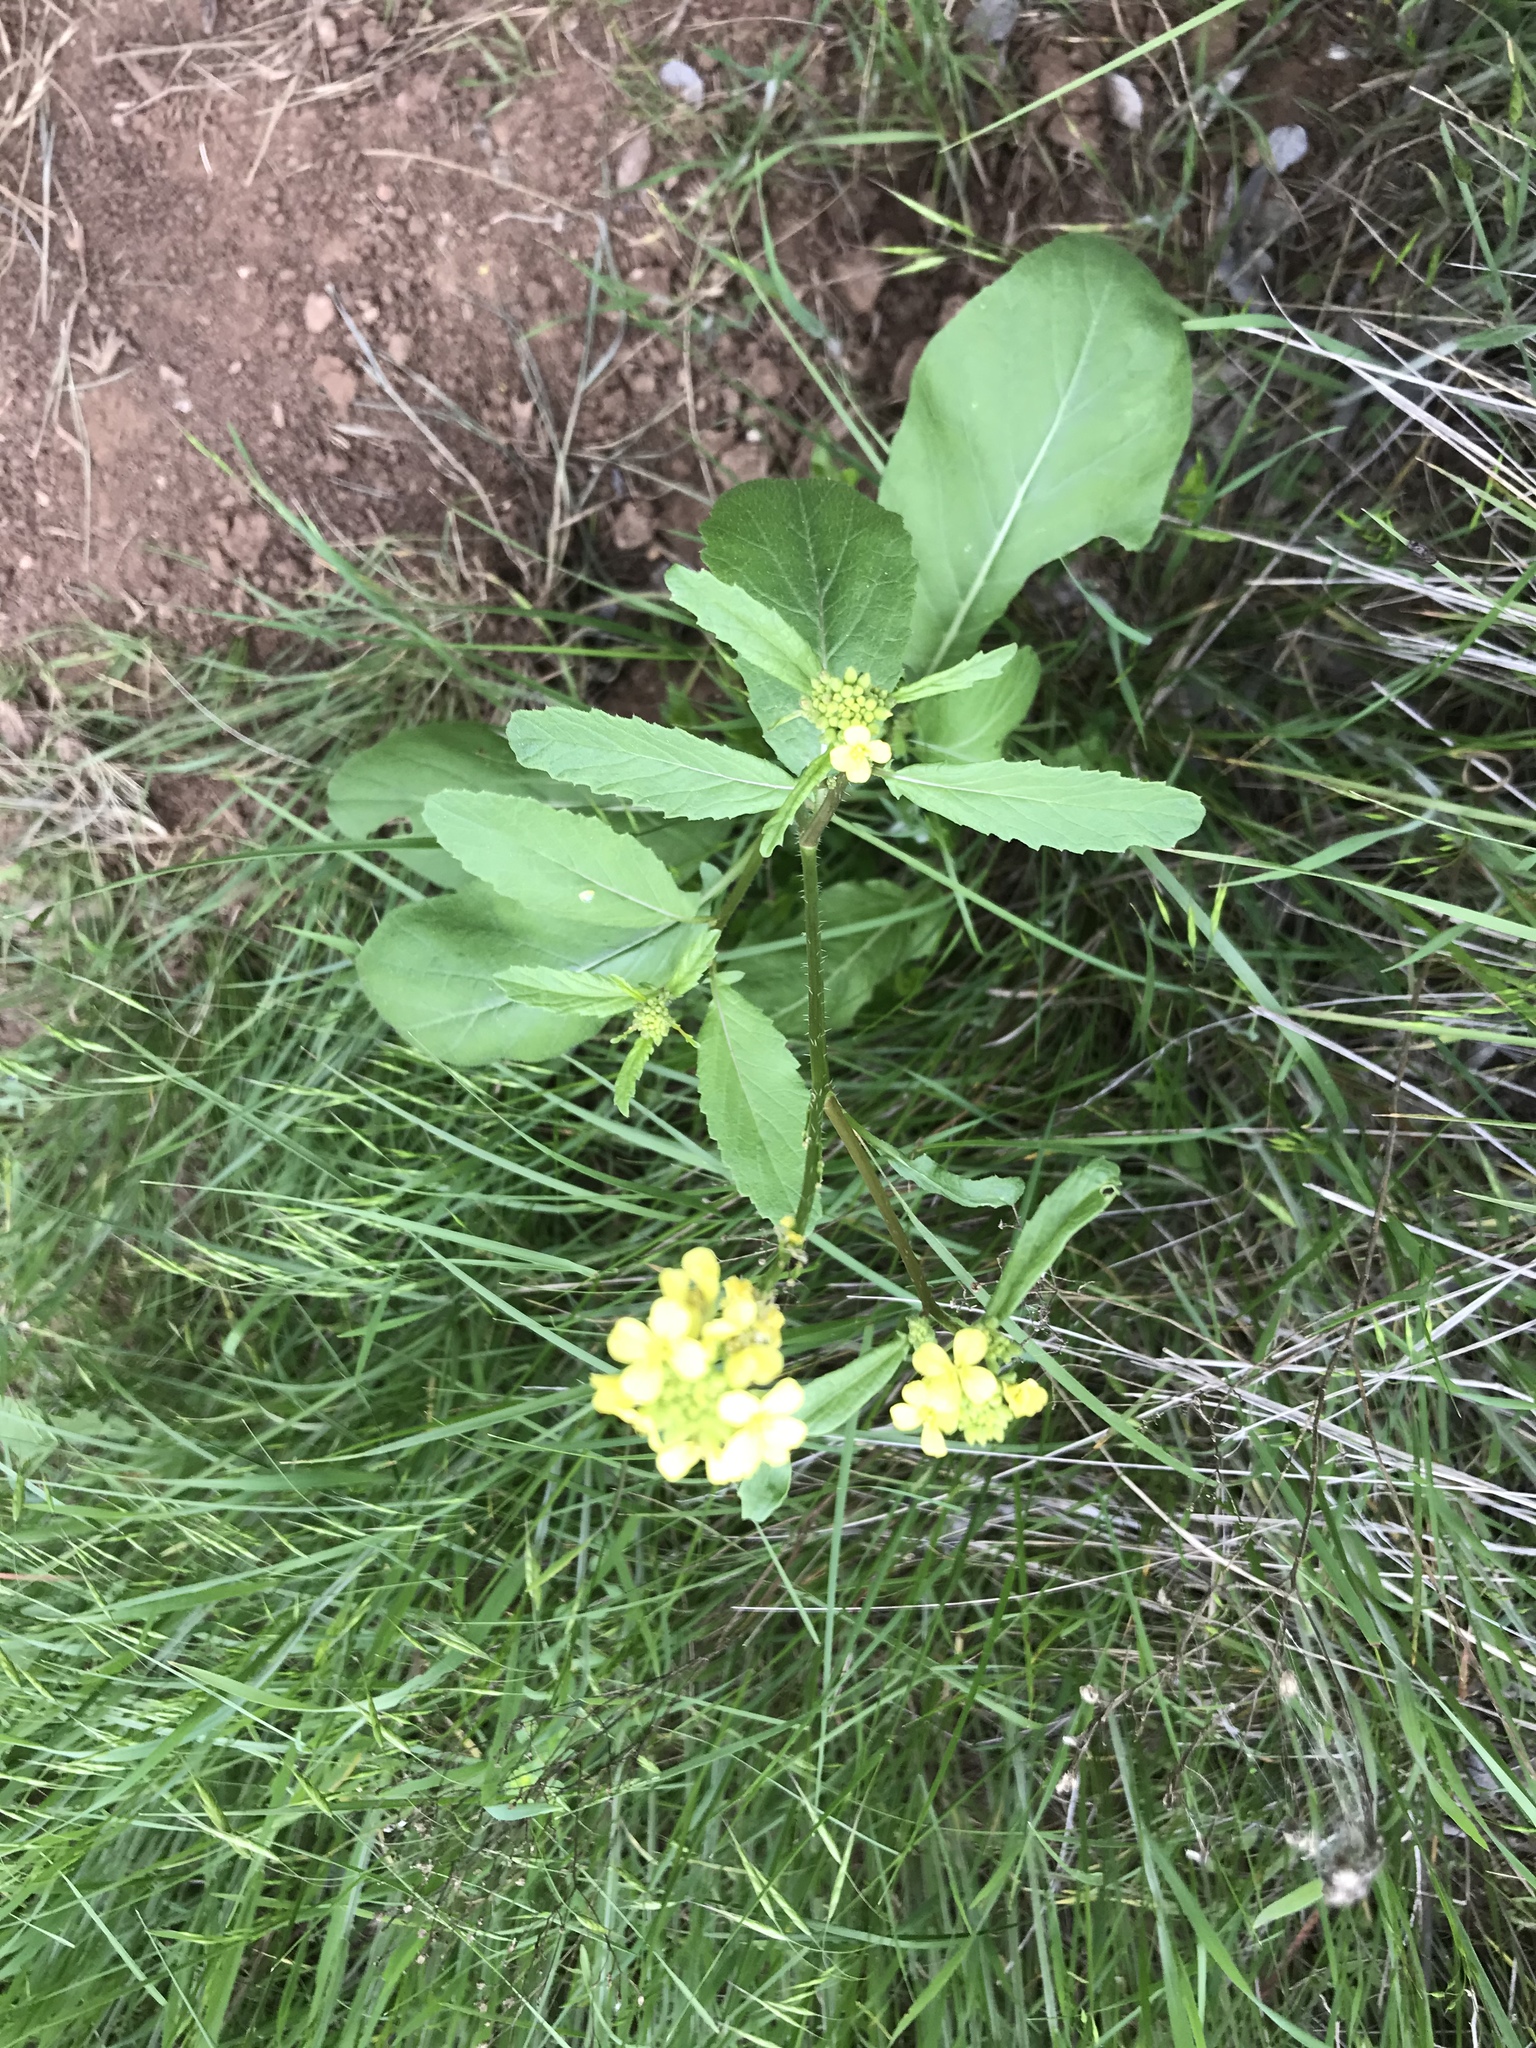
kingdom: Plantae
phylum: Tracheophyta
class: Magnoliopsida
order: Brassicales
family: Brassicaceae
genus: Rapistrum
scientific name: Rapistrum rugosum
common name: Annual bastardcabbage
